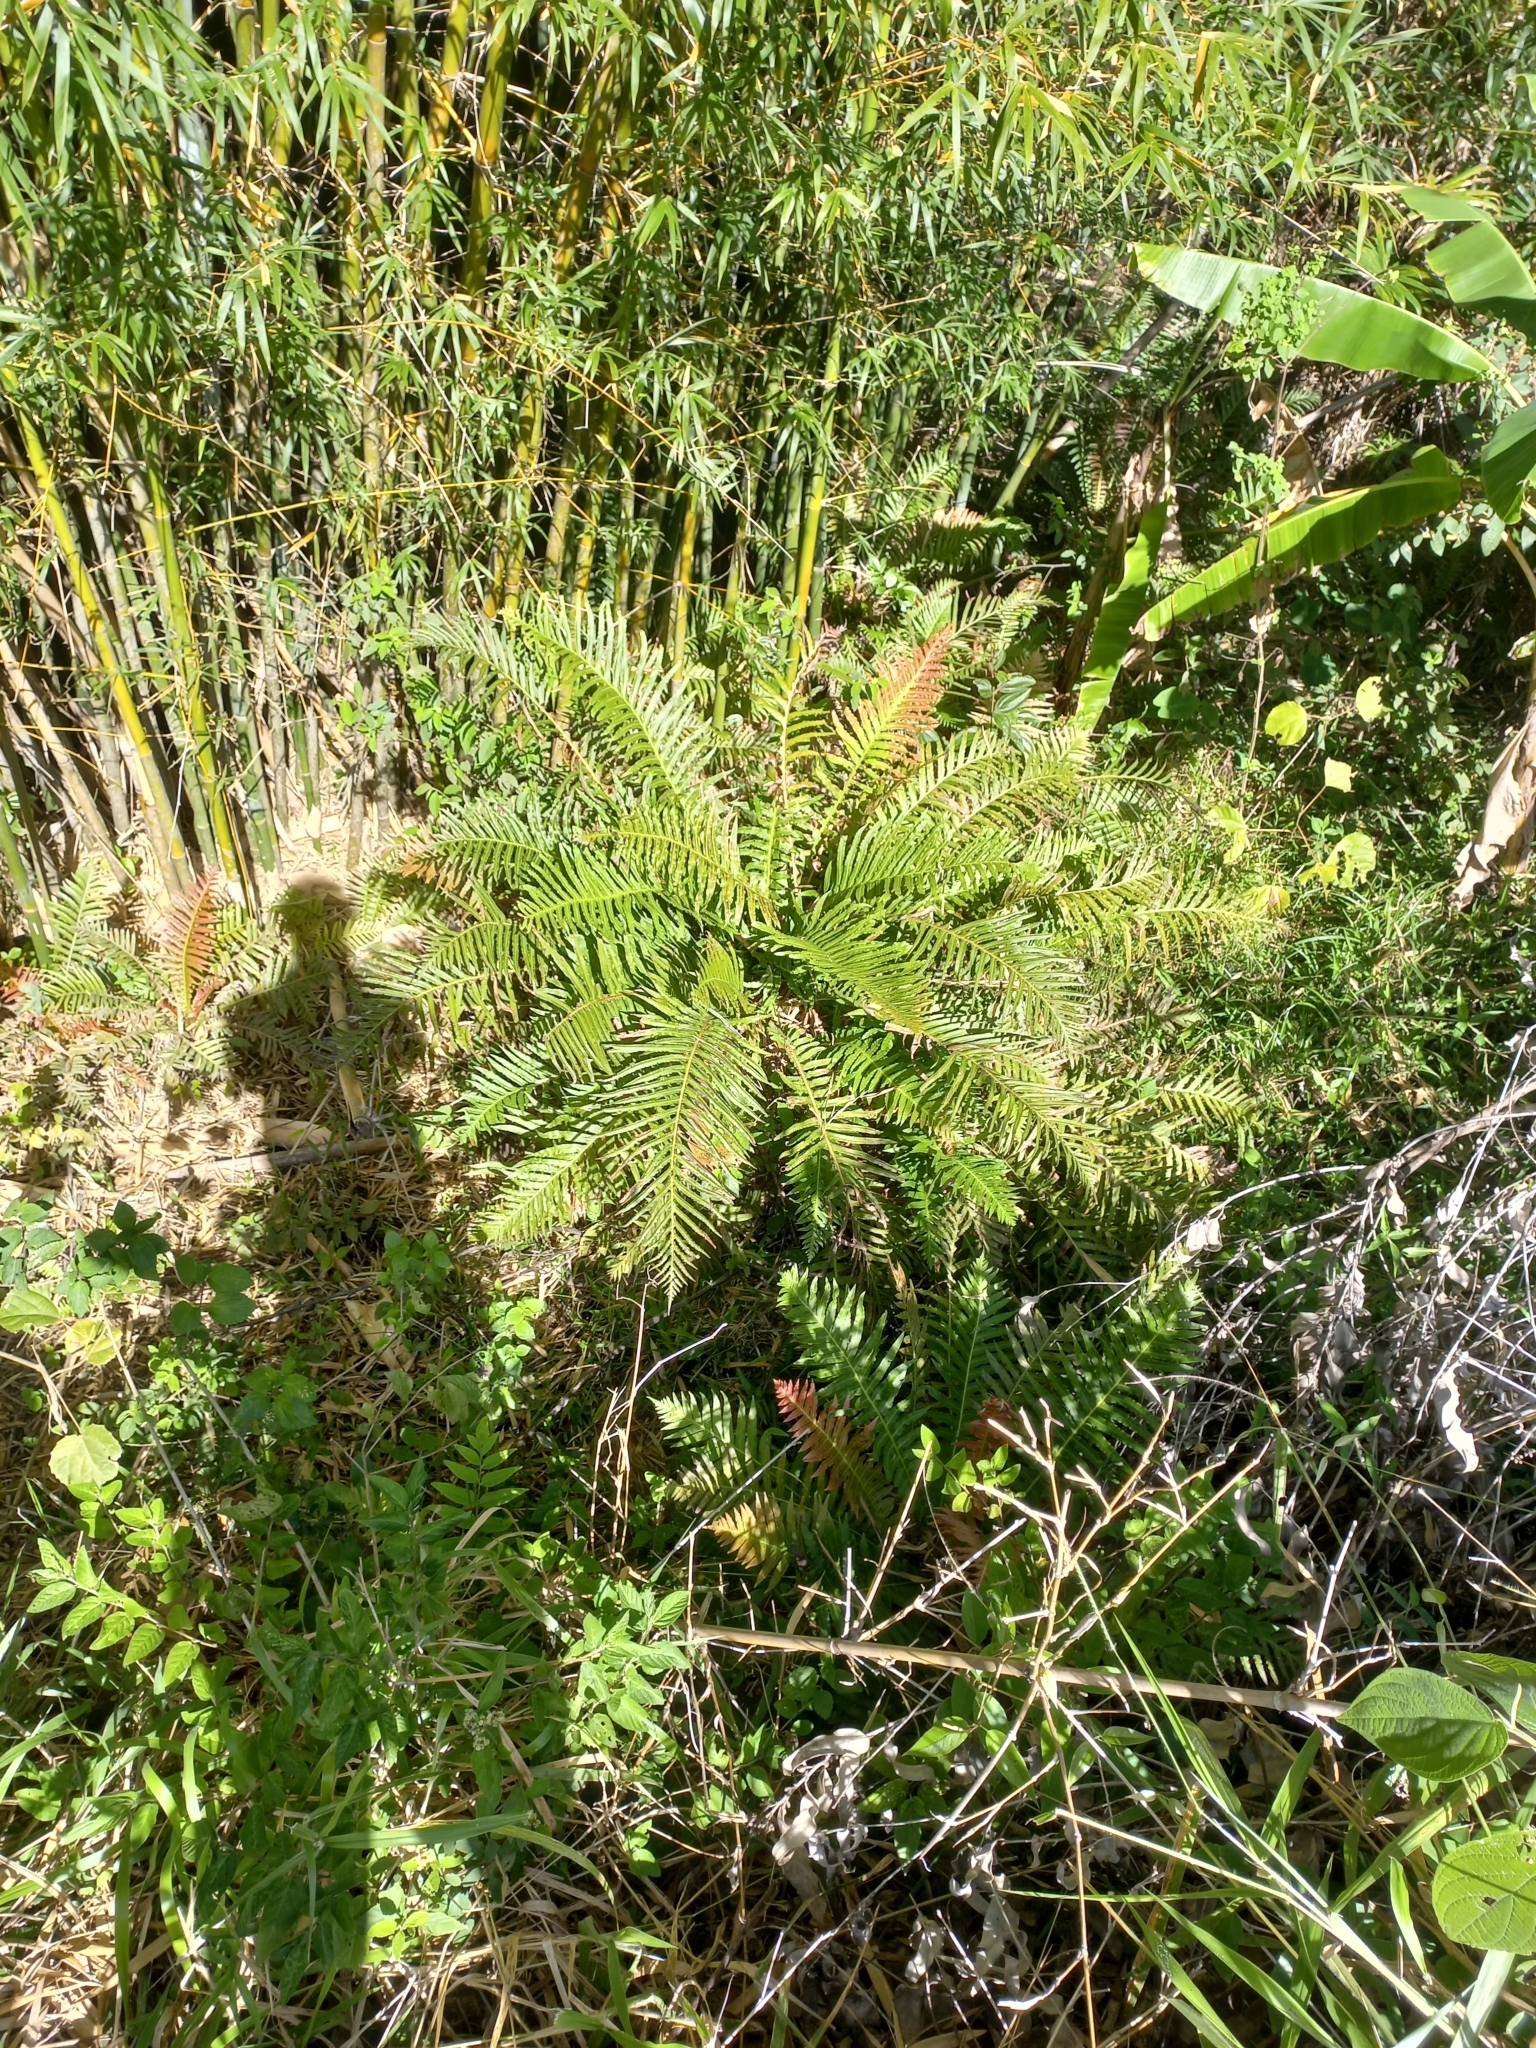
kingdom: Plantae
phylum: Tracheophyta
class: Polypodiopsida
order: Polypodiales
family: Blechnaceae
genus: Neoblechnum
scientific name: Neoblechnum brasiliense
